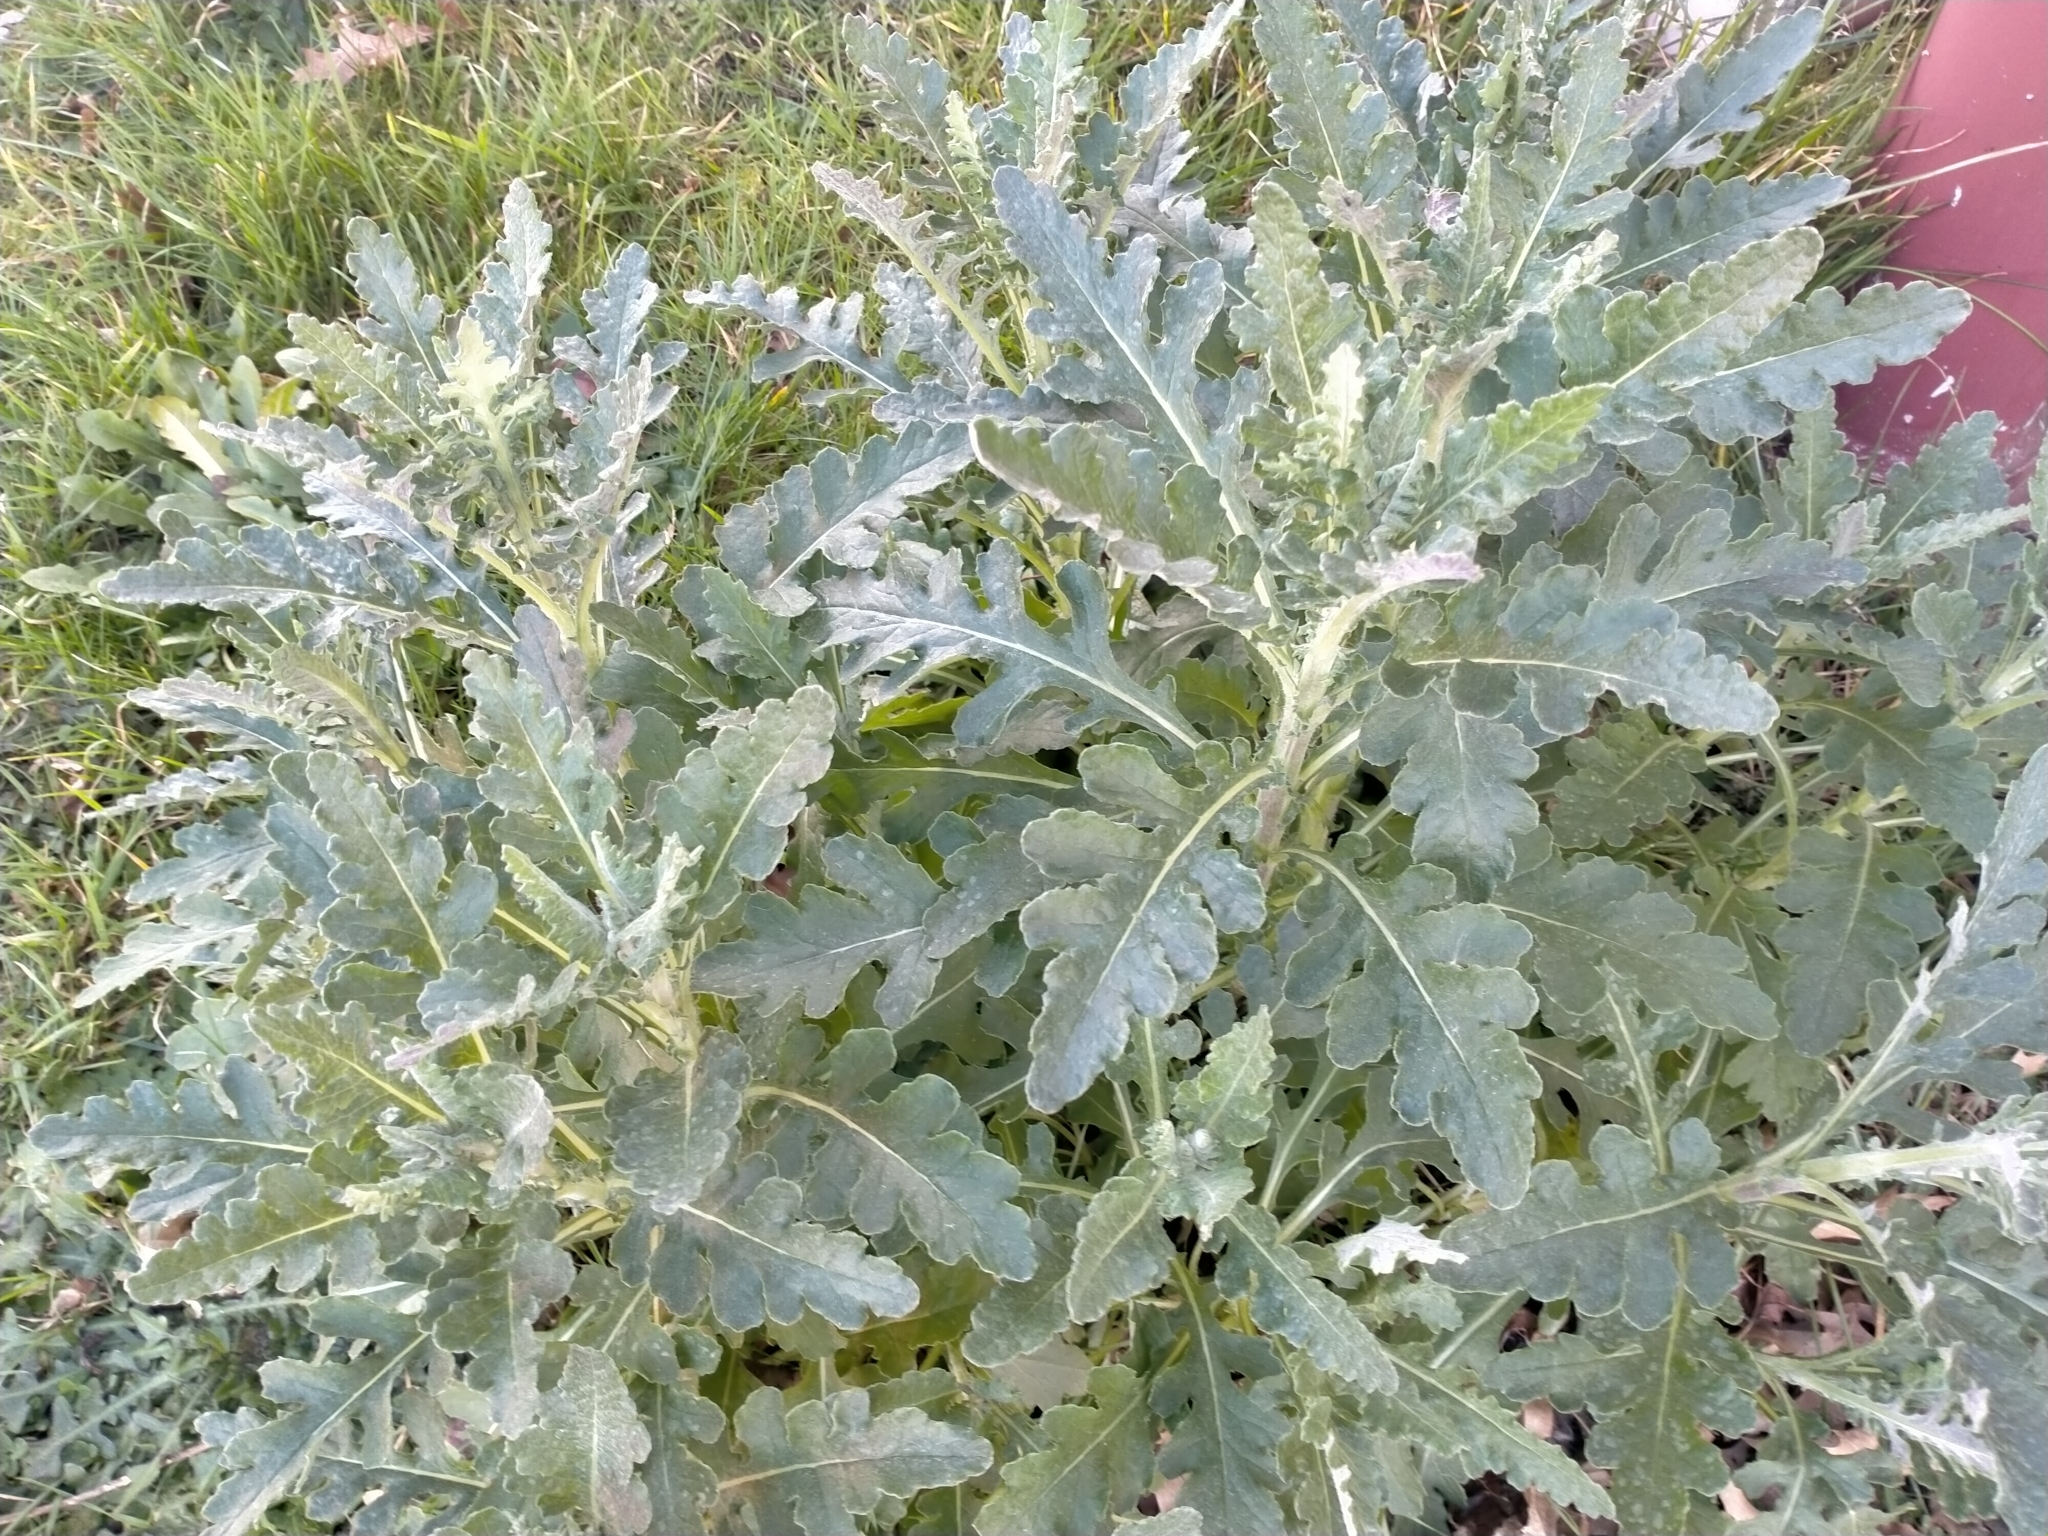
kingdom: Plantae
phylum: Tracheophyta
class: Magnoliopsida
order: Asterales
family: Asteraceae
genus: Senecio
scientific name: Senecio glomeratus
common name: Cutleaf burnweed
